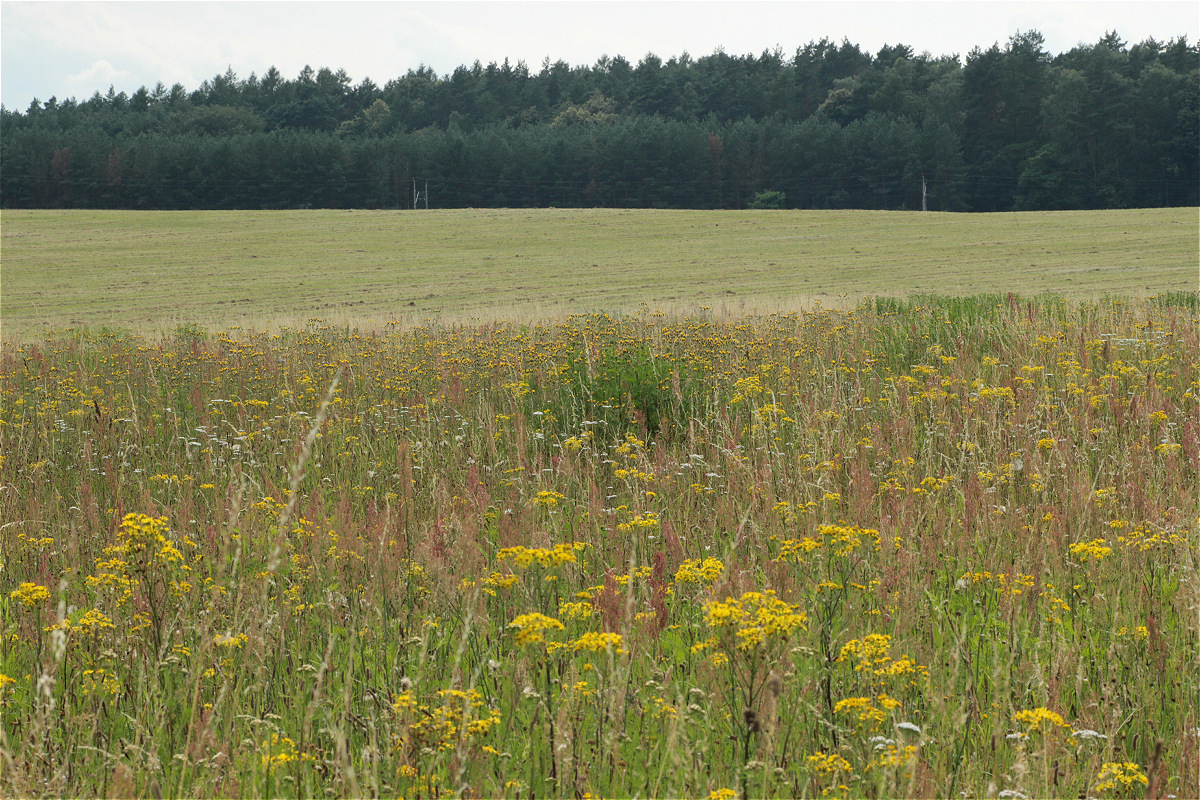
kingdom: Plantae
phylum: Tracheophyta
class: Magnoliopsida
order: Asterales
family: Asteraceae
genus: Jacobaea
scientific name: Jacobaea vulgaris
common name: Stinking willie
